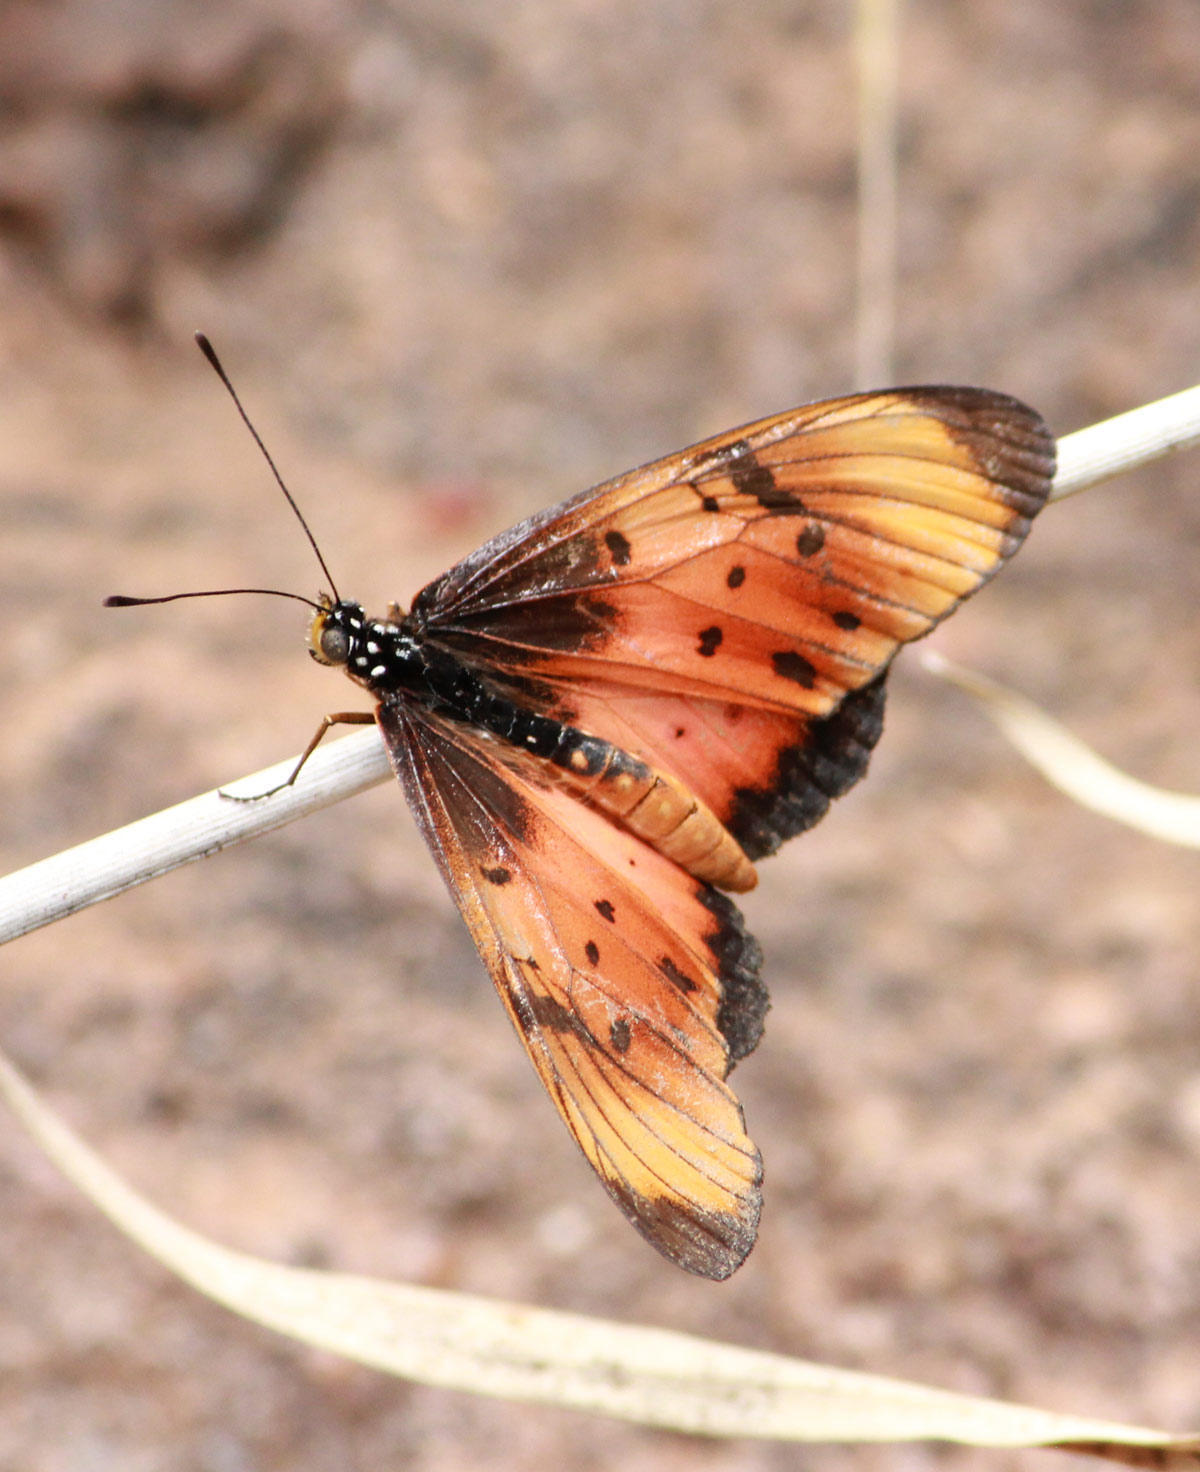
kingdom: Animalia
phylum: Arthropoda
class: Insecta
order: Lepidoptera
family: Nymphalidae
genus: Stephenia
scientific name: Stephenia
